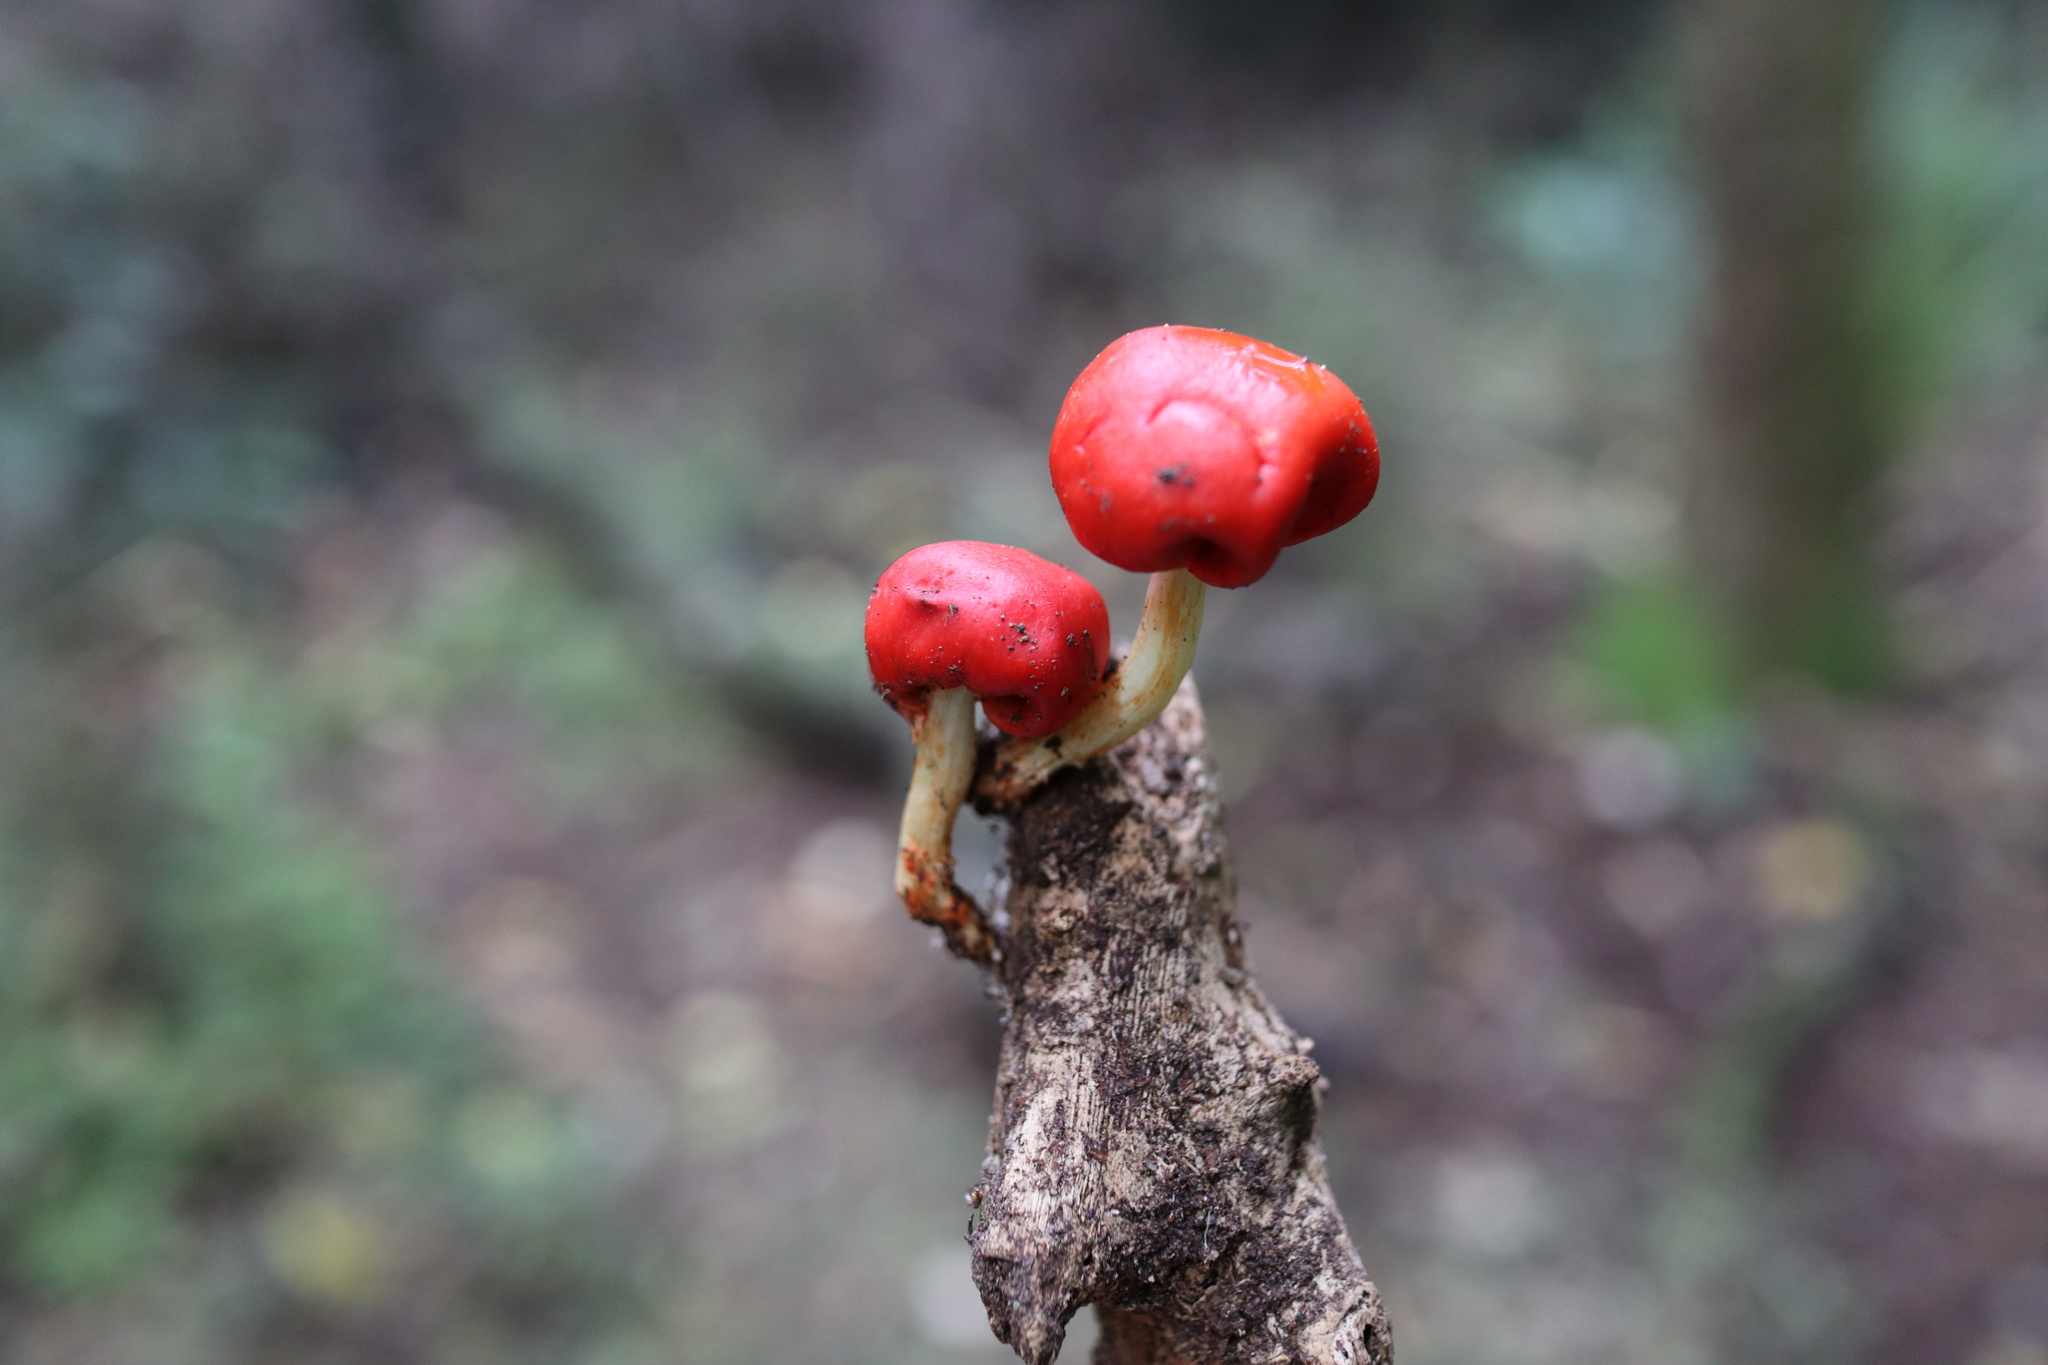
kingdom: Fungi
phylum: Basidiomycota
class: Agaricomycetes
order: Agaricales
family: Strophariaceae
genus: Leratiomyces
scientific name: Leratiomyces erythrocephalus
